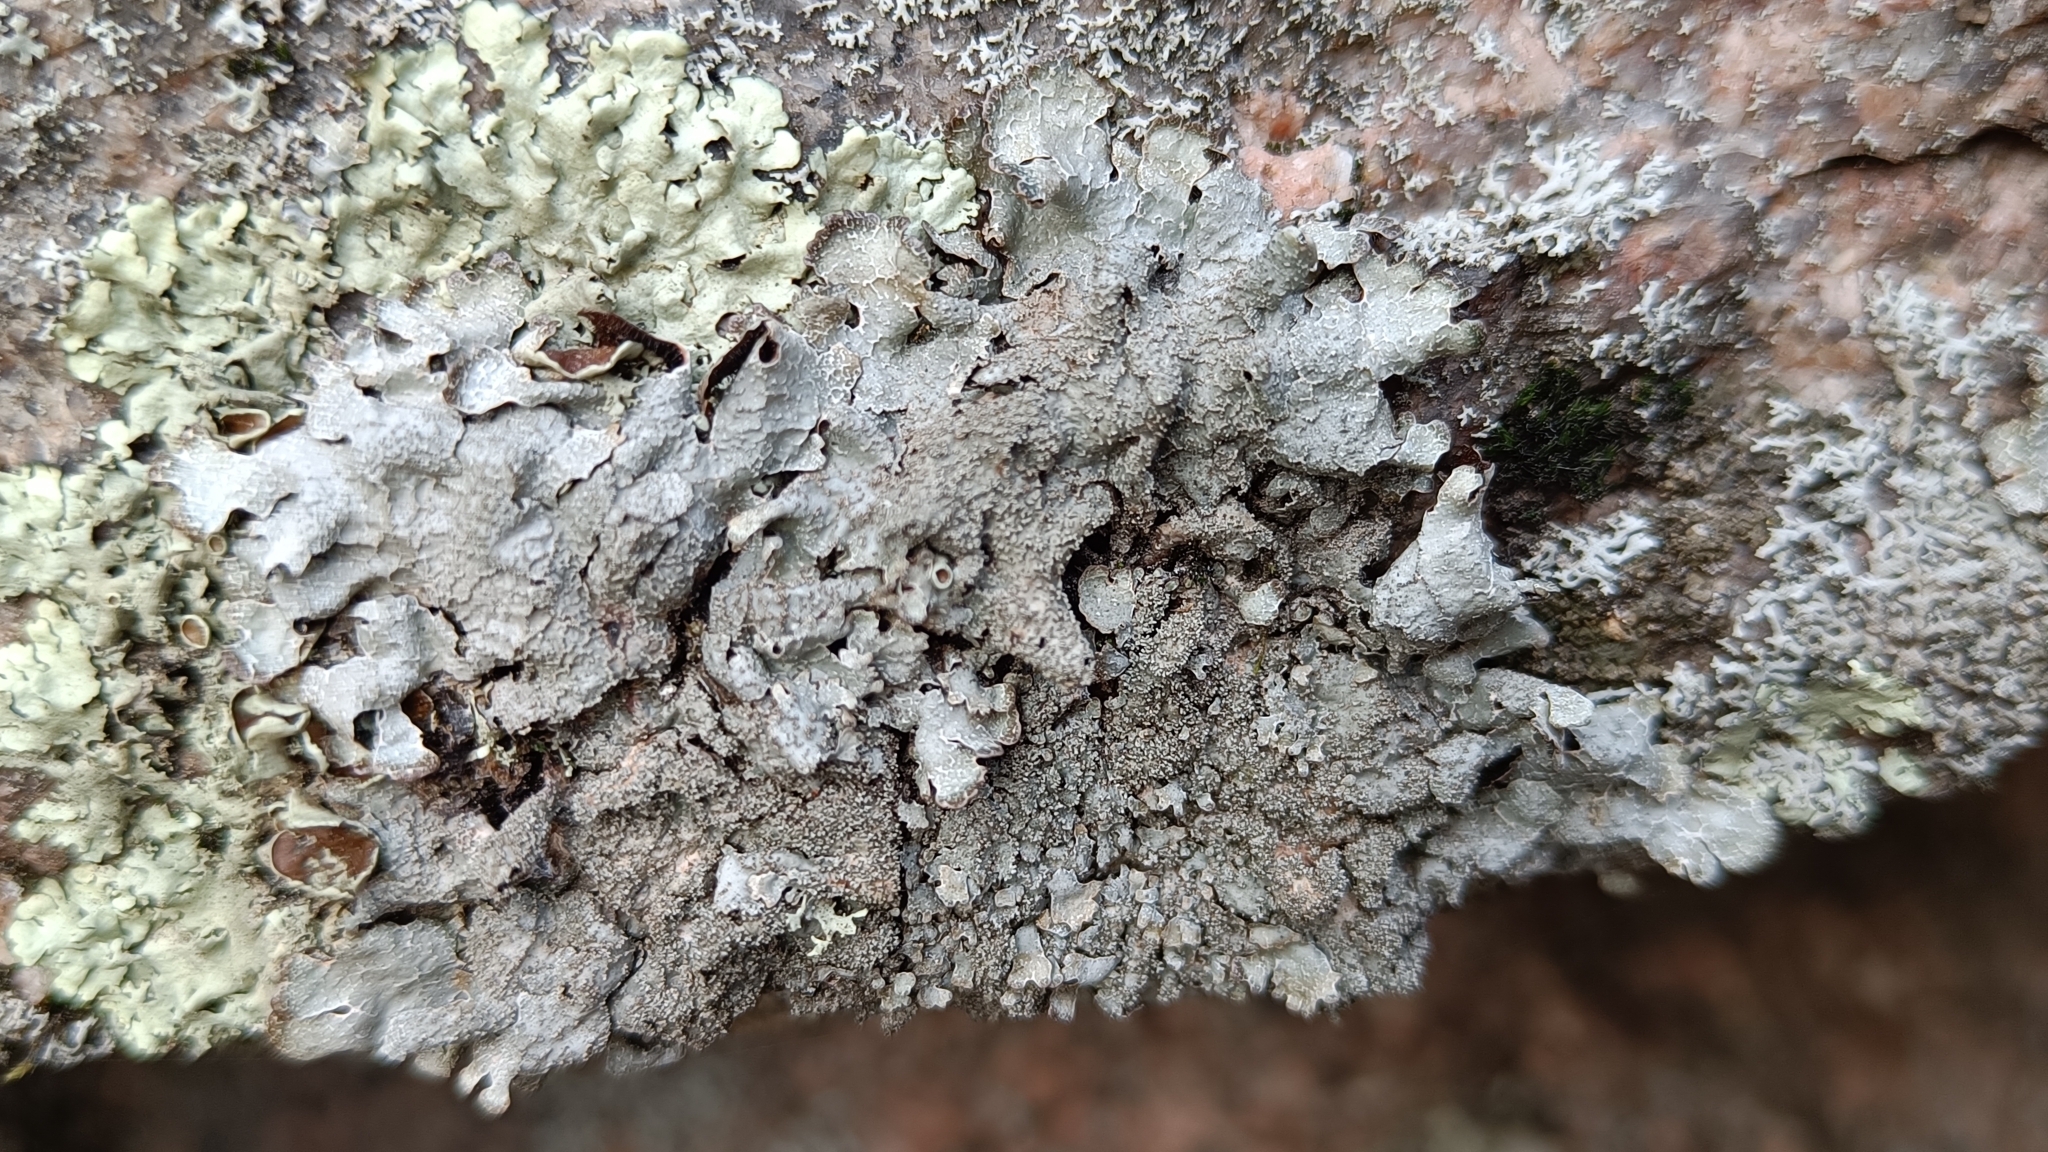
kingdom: Fungi
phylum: Ascomycota
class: Lecanoromycetes
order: Lecanorales
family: Parmeliaceae
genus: Parmelia
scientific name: Parmelia saxatilis
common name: Salted shield lichen
